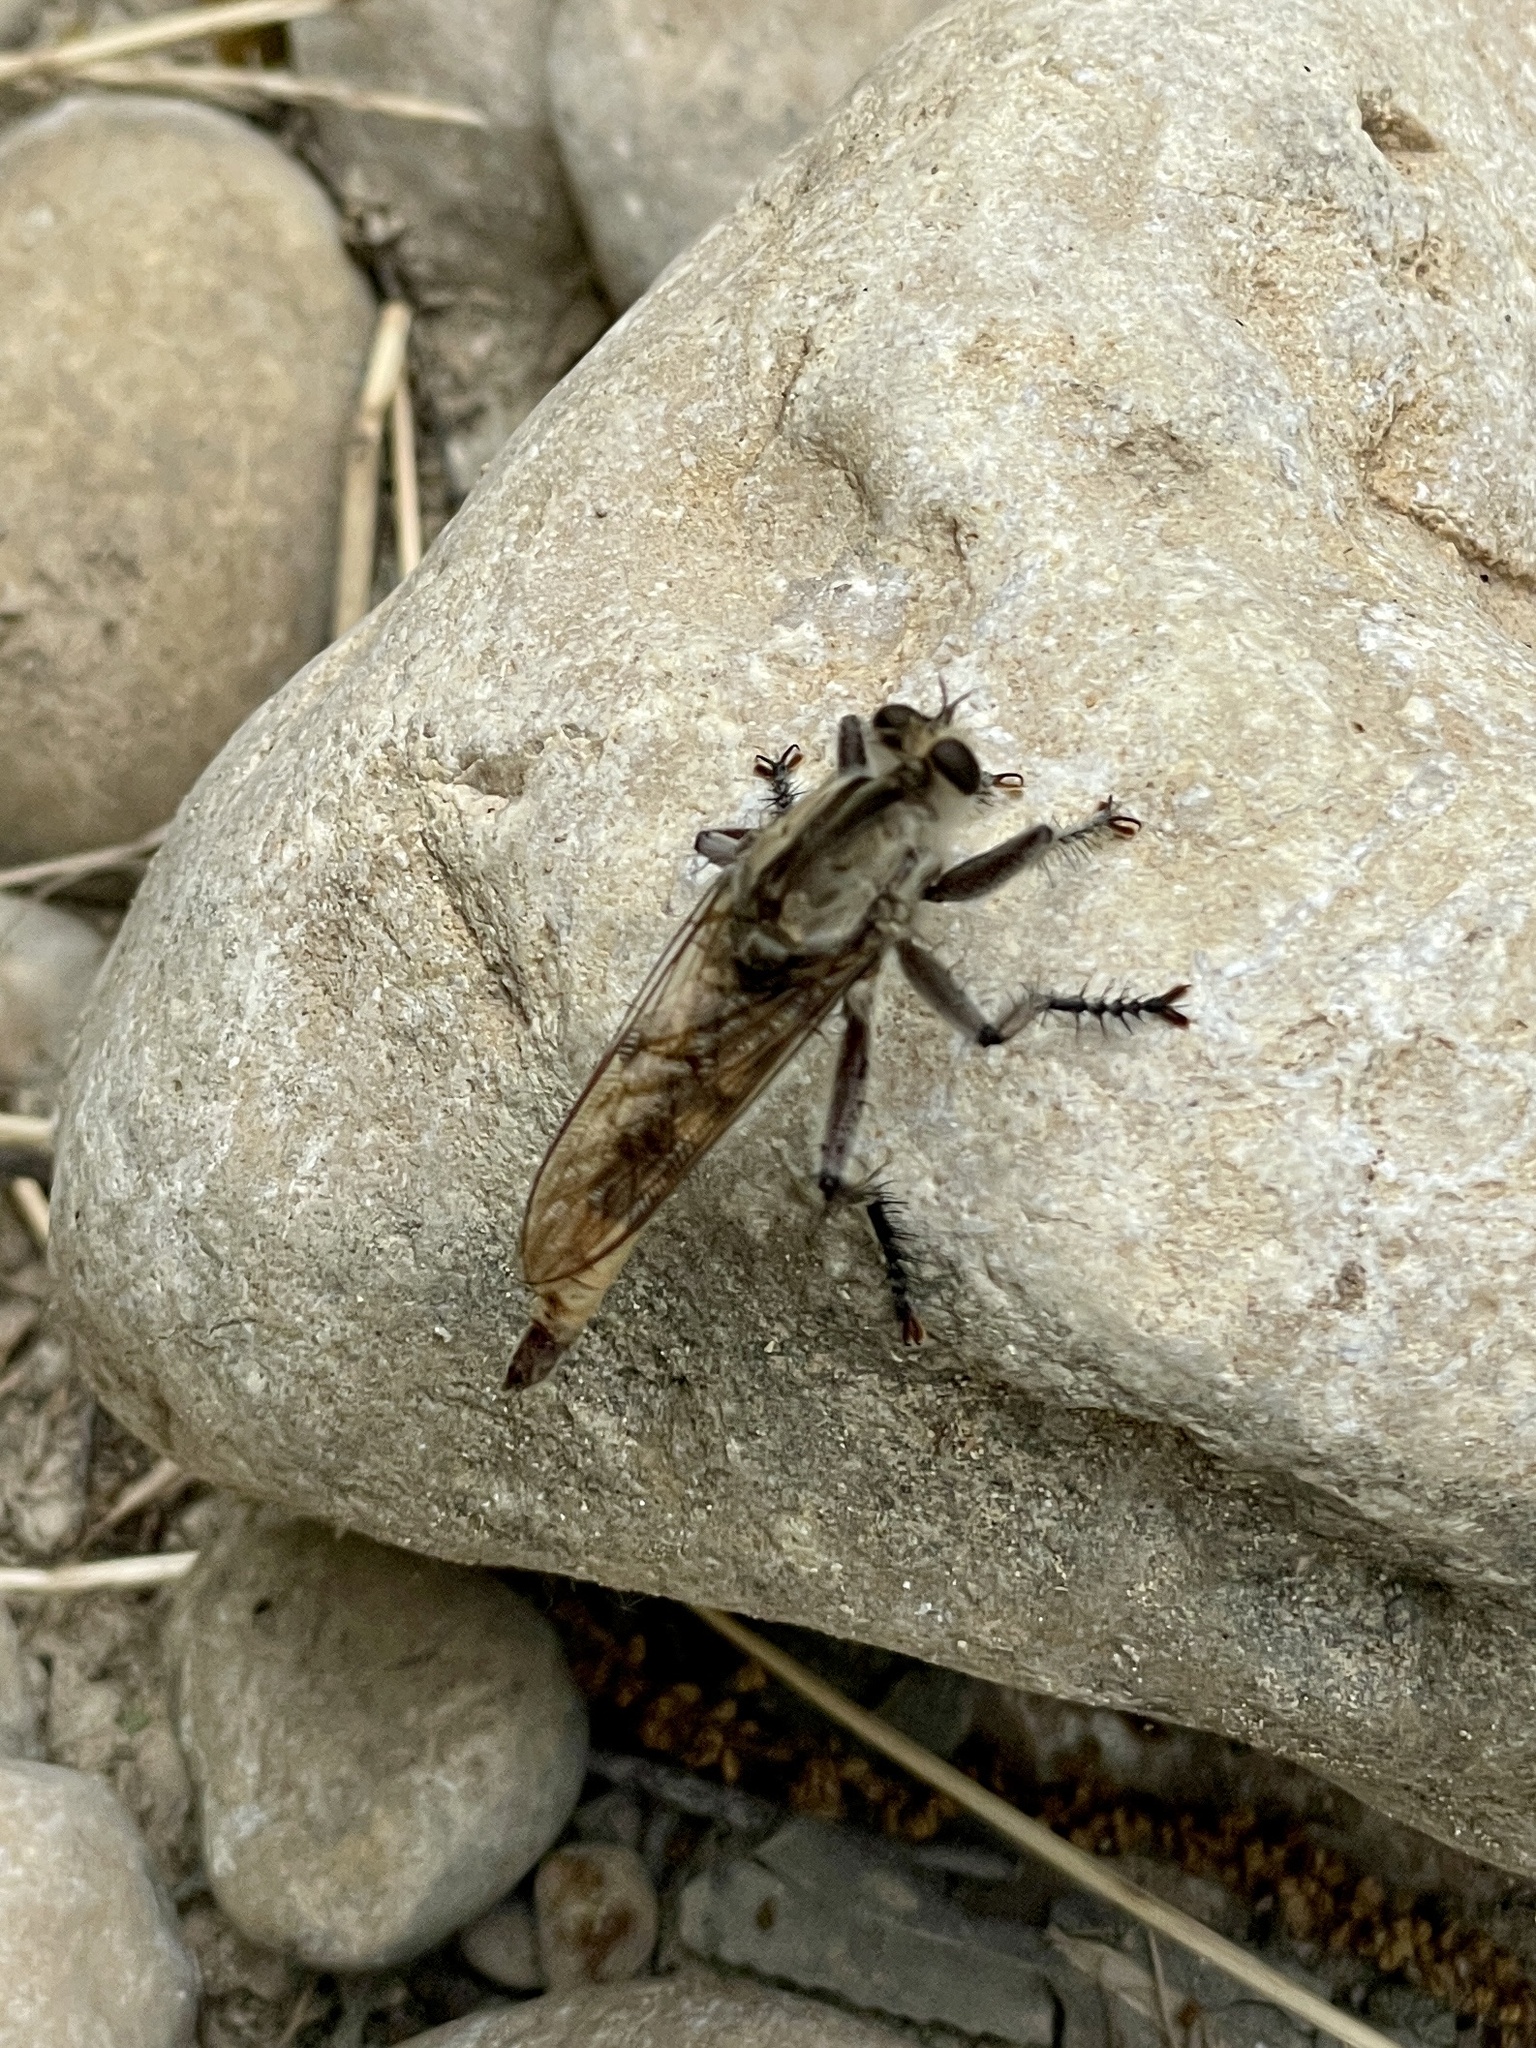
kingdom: Animalia
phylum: Arthropoda
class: Insecta
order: Diptera
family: Asilidae
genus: Triorla
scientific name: Triorla interrupta
